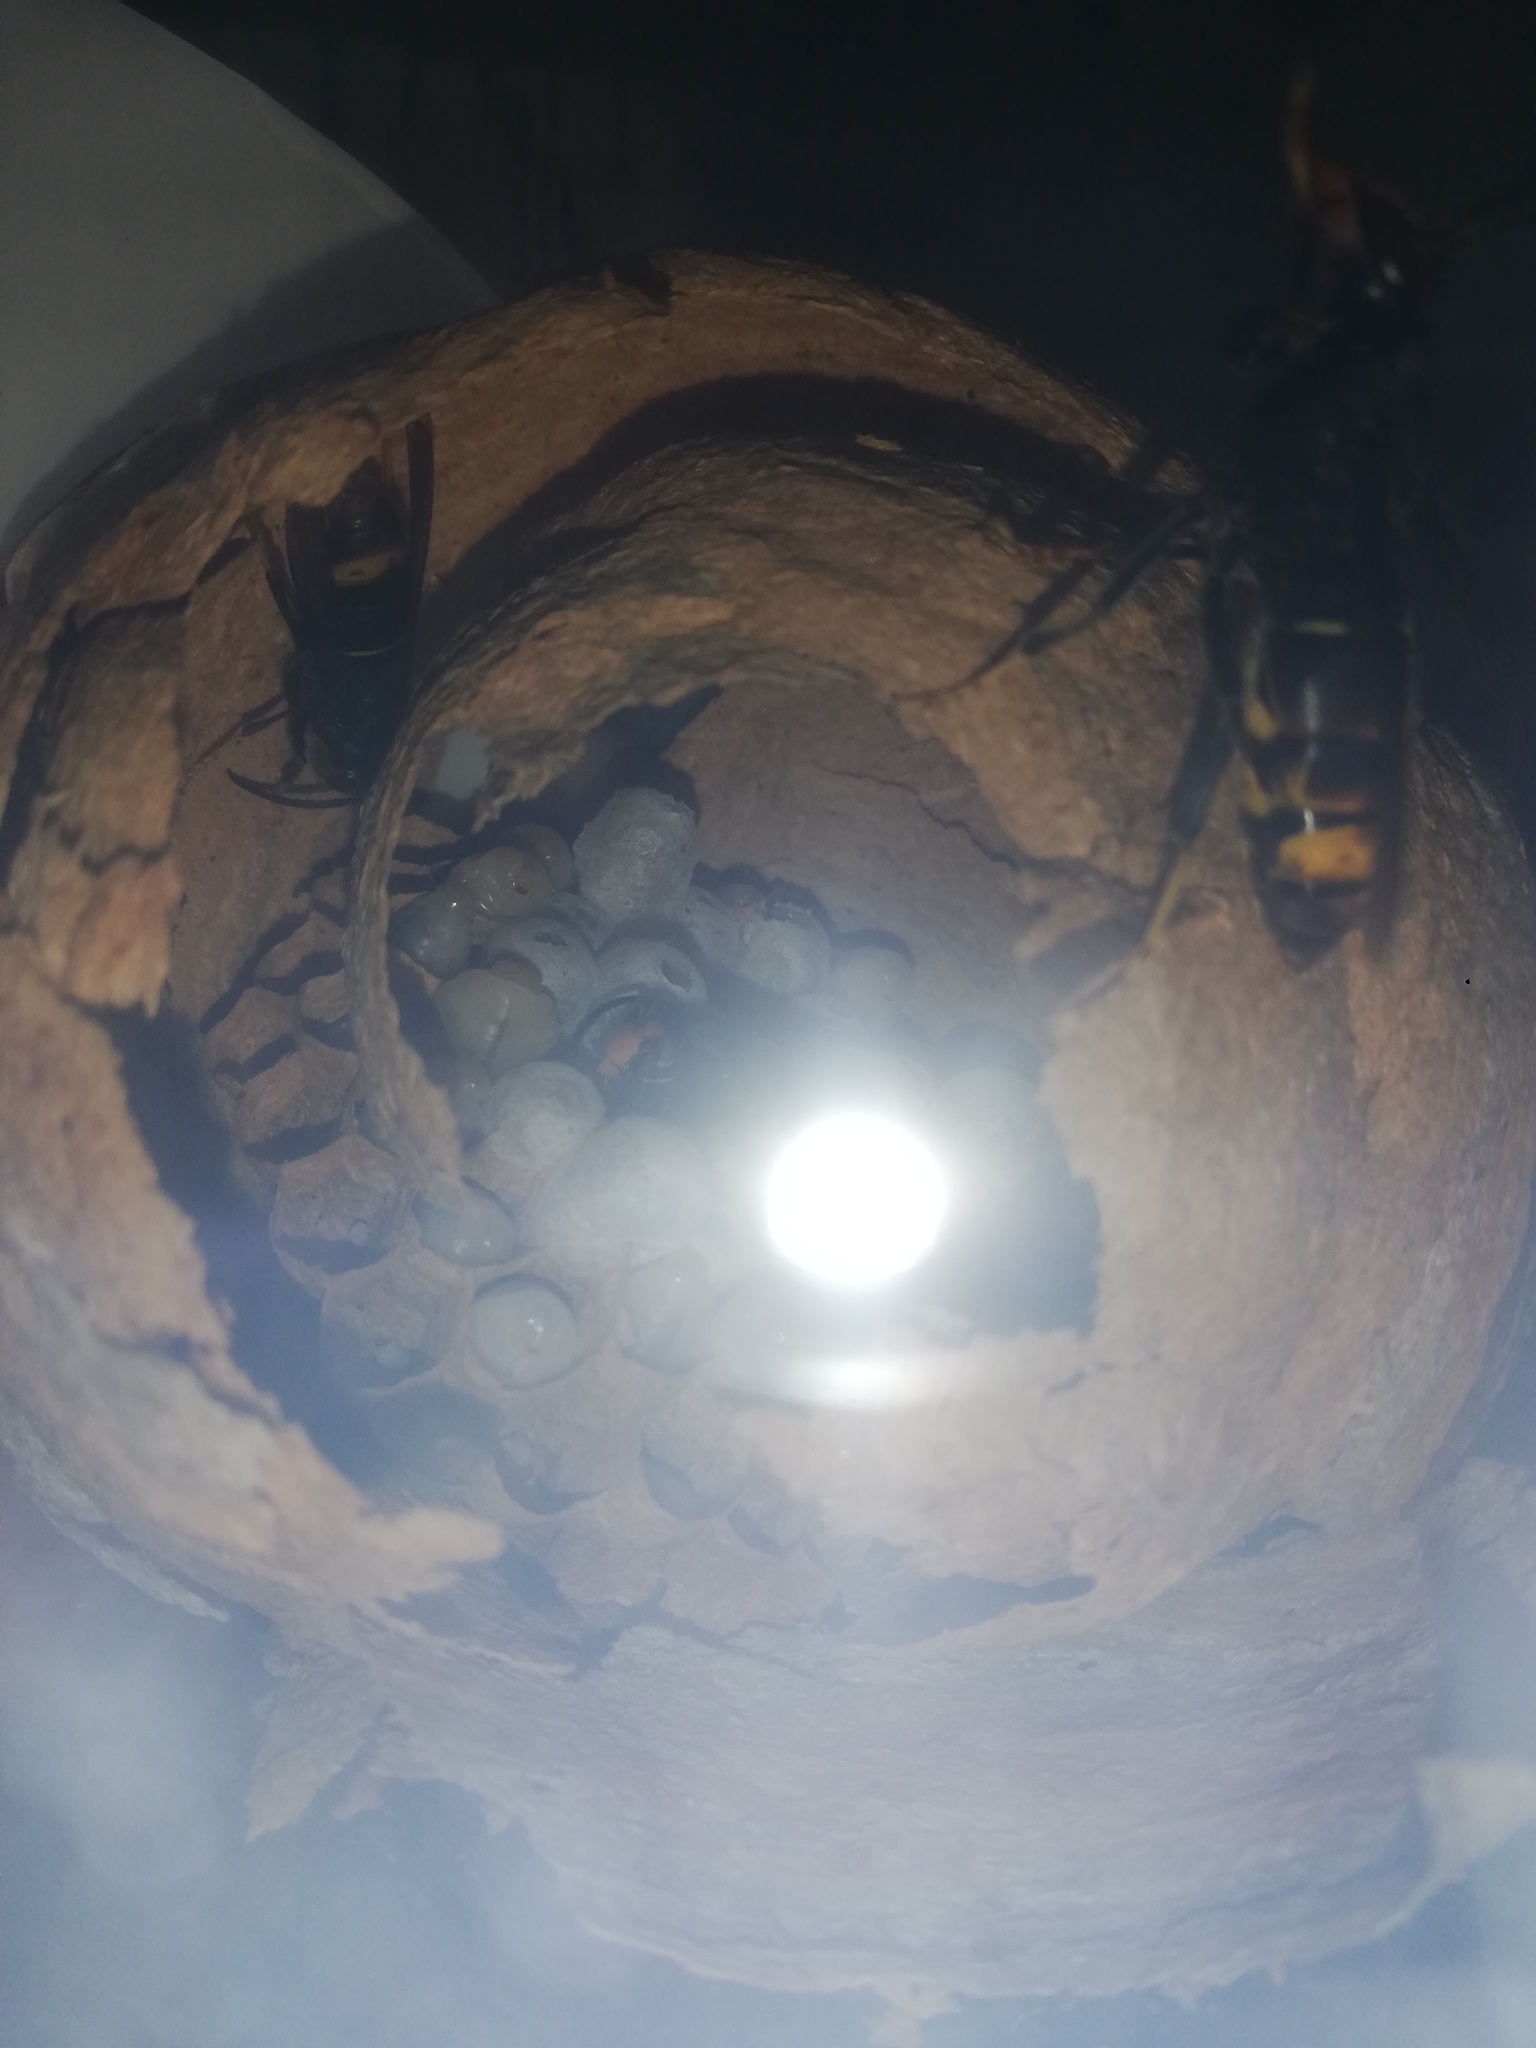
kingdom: Animalia
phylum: Arthropoda
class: Insecta
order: Hymenoptera
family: Vespidae
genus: Vespa
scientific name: Vespa velutina
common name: Asian hornet
